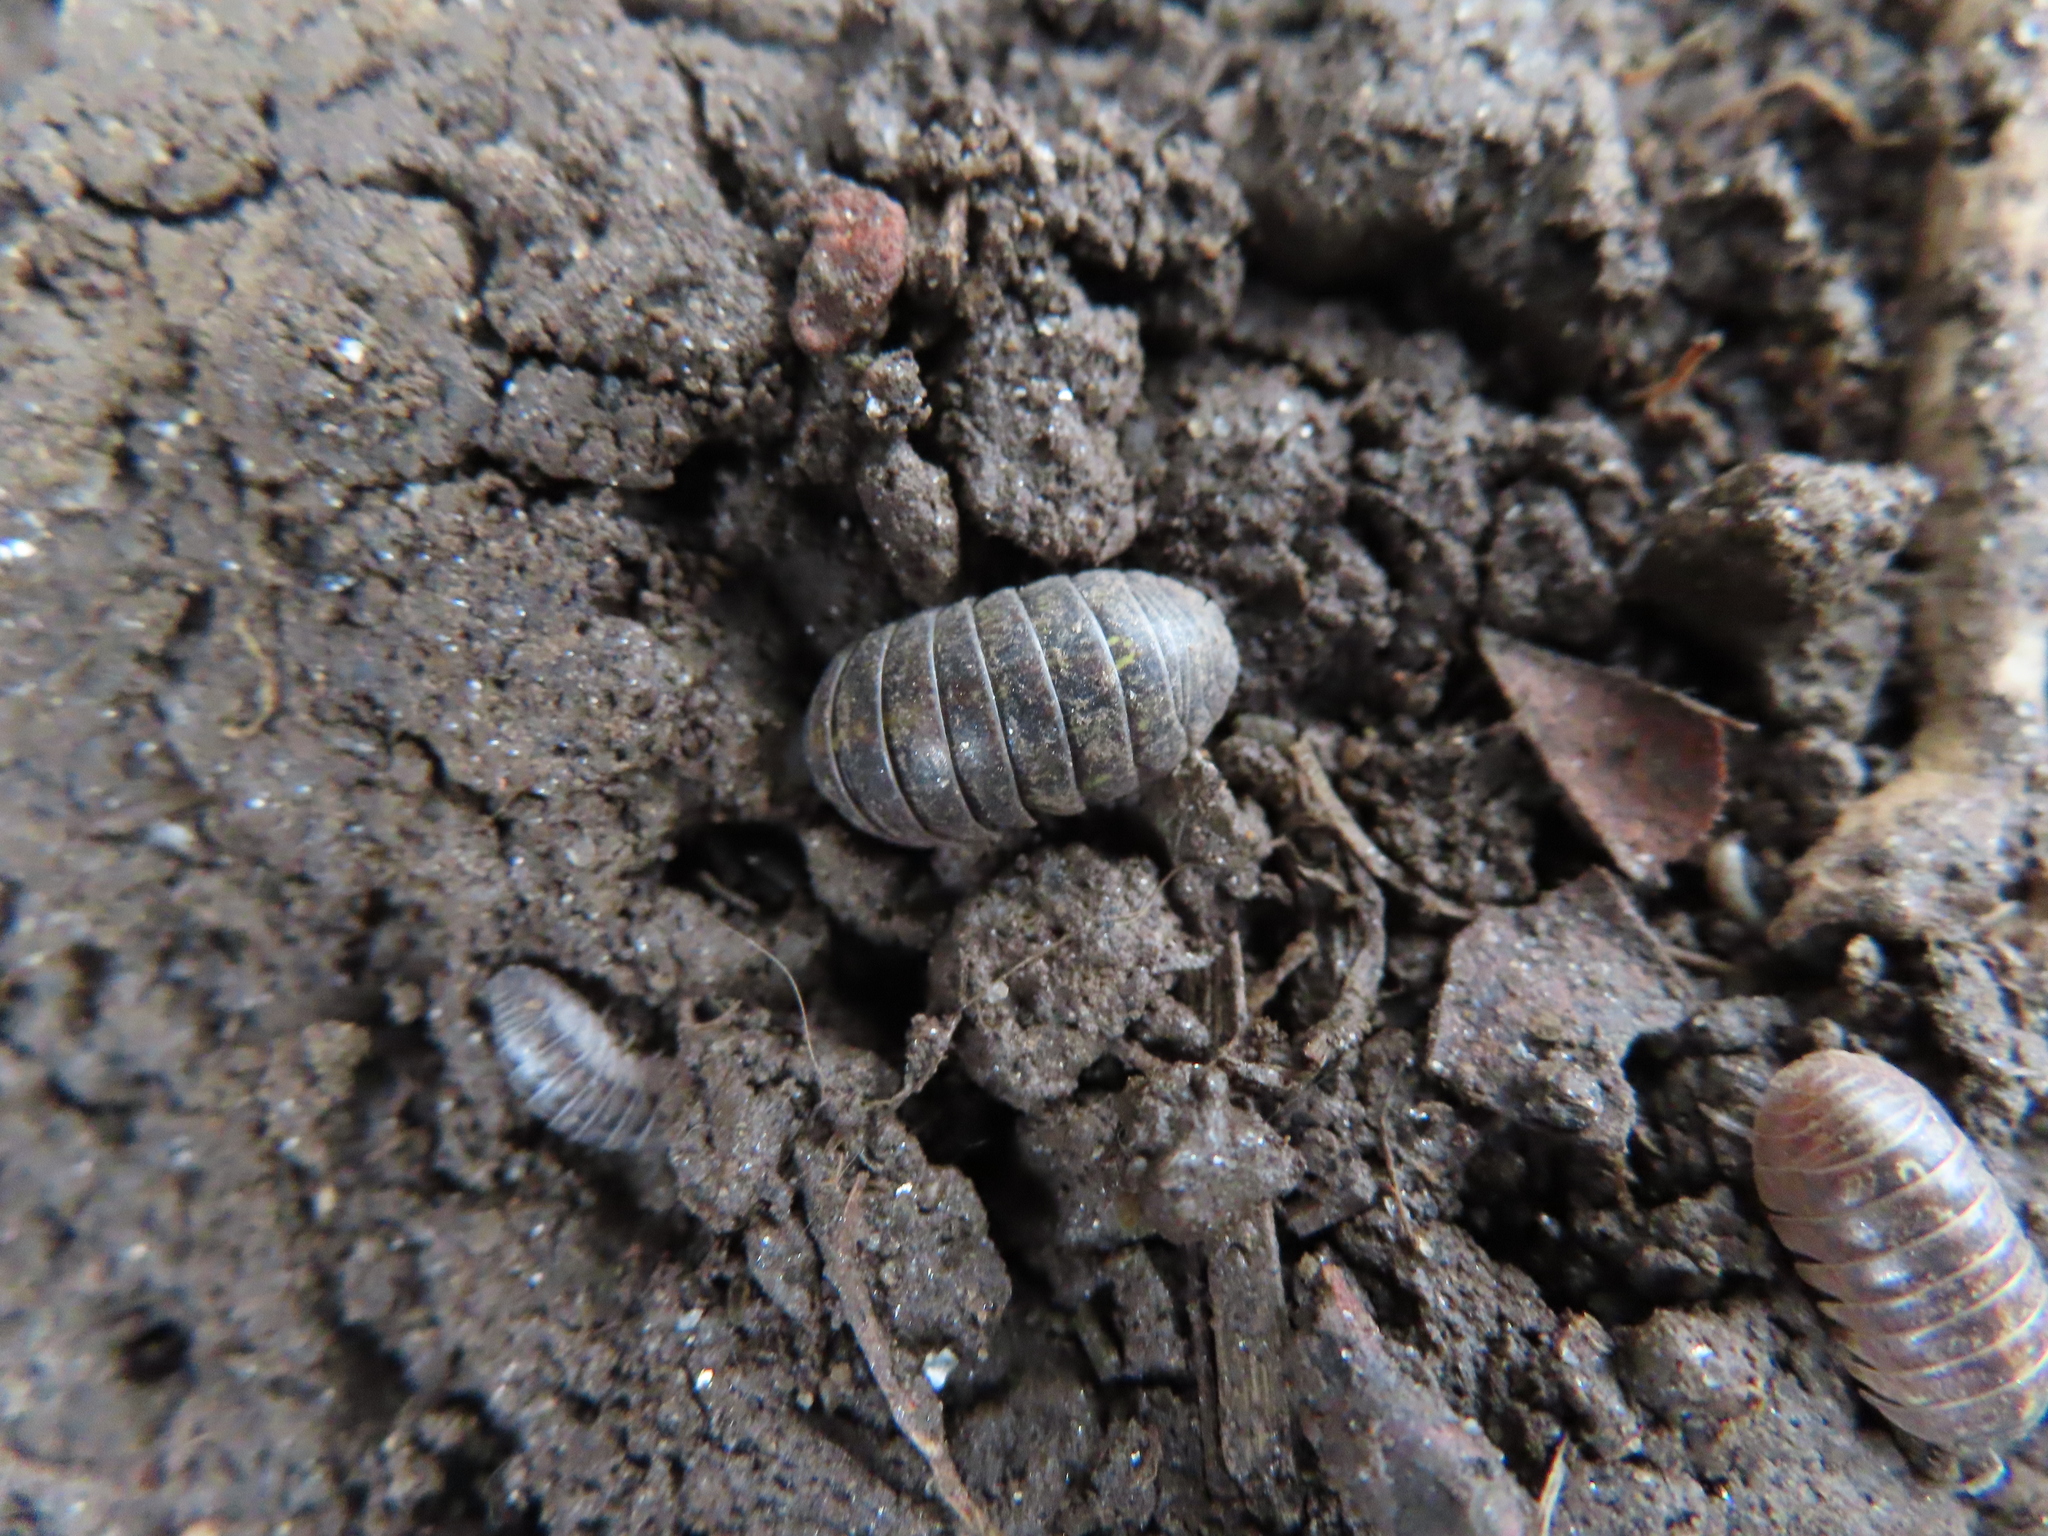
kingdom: Animalia
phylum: Arthropoda
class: Malacostraca
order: Isopoda
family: Armadillidiidae
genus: Armadillidium
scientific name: Armadillidium vulgare
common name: Common pill woodlouse
